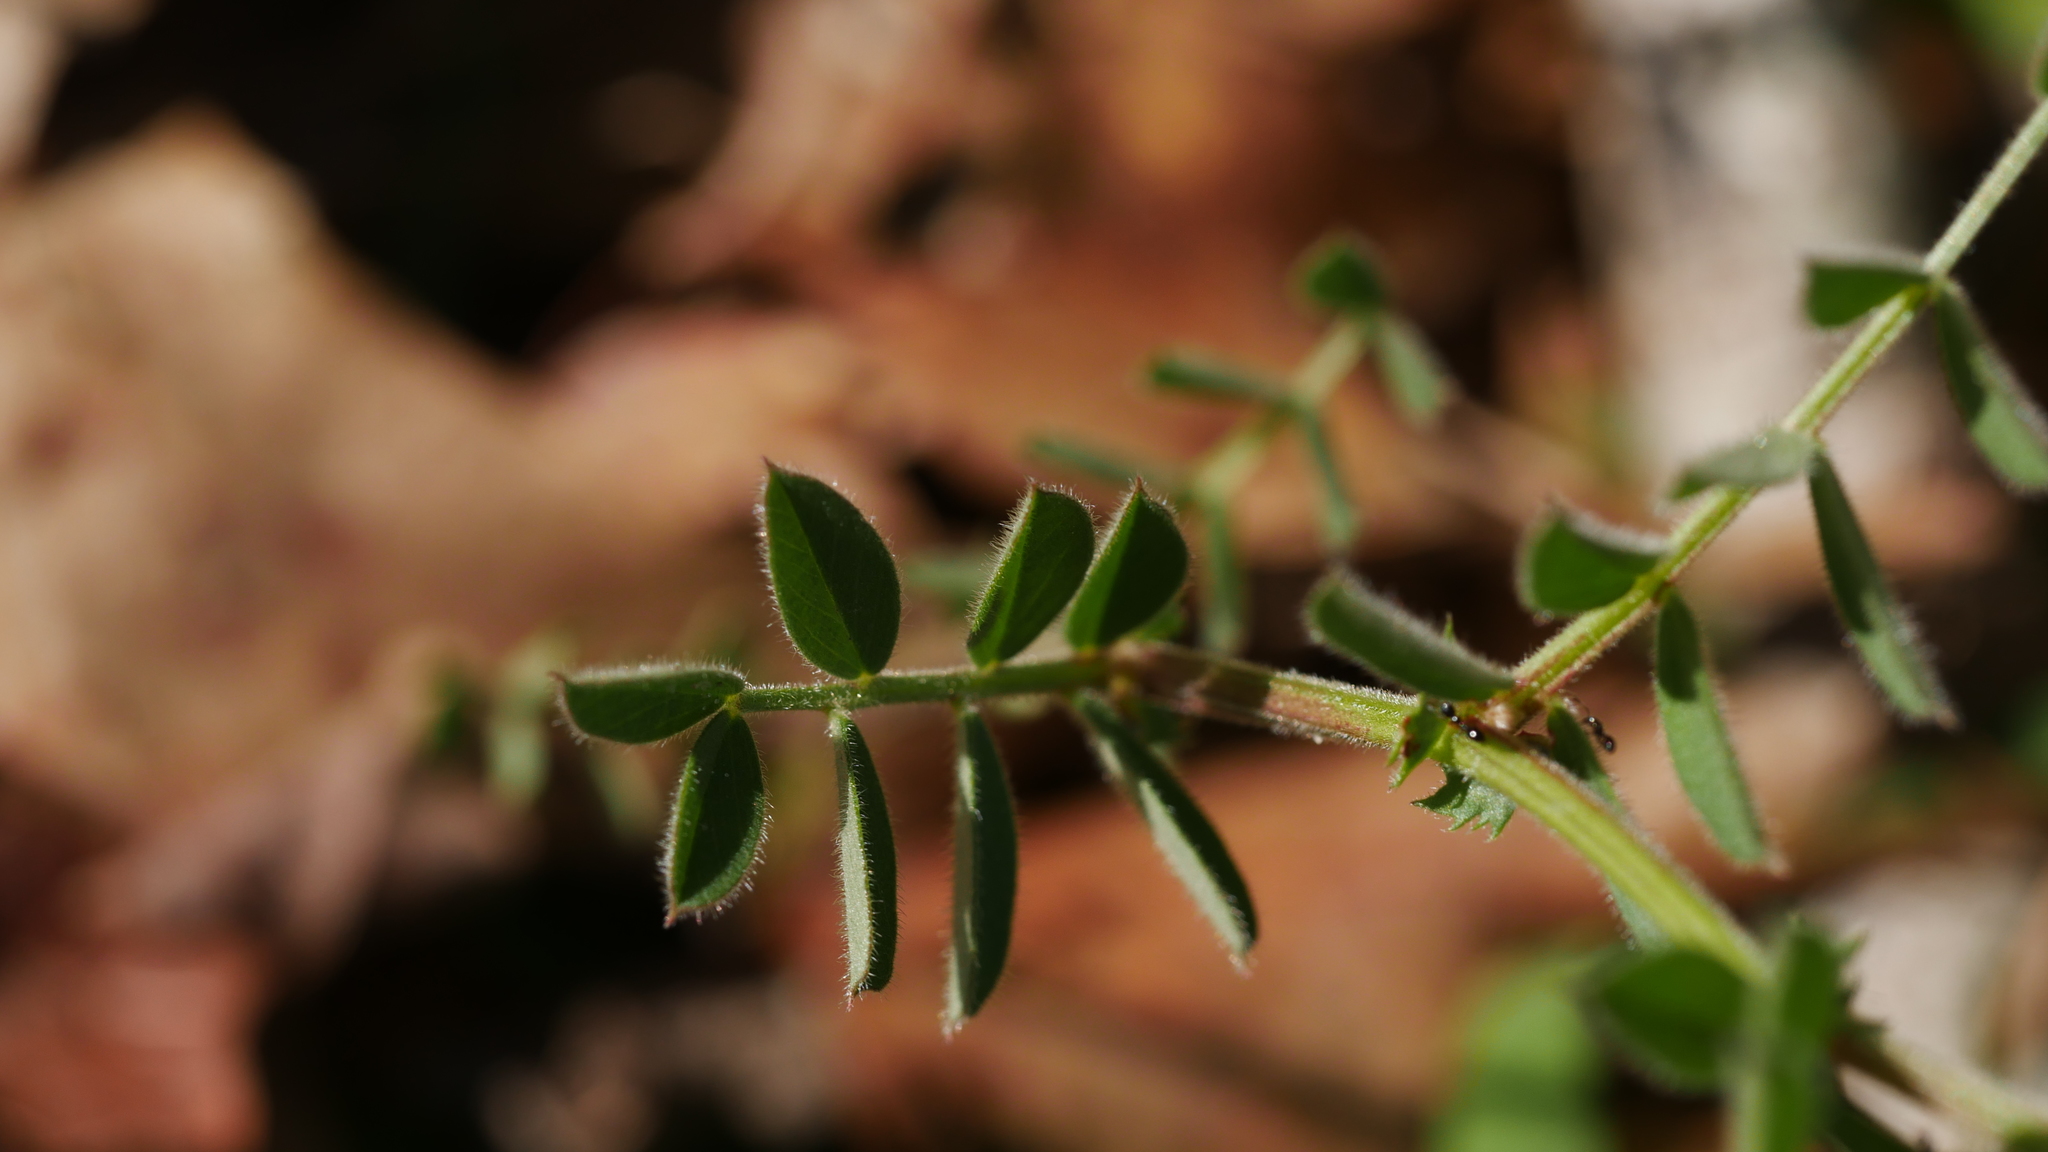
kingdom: Plantae
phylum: Tracheophyta
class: Magnoliopsida
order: Fabales
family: Fabaceae
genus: Vicia
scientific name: Vicia sativa
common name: Garden vetch
